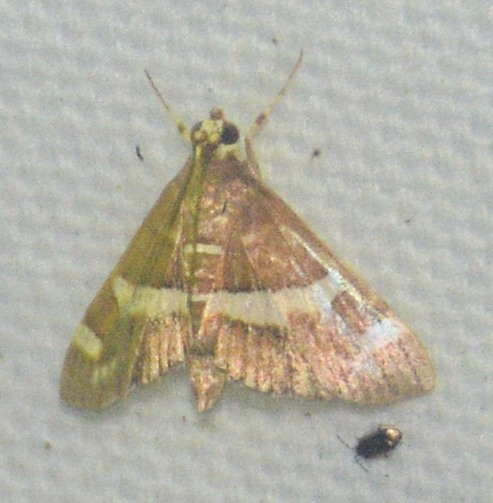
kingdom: Animalia
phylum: Arthropoda
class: Insecta
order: Lepidoptera
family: Crambidae
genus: Spoladea
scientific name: Spoladea recurvalis
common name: Beet webworm moth
